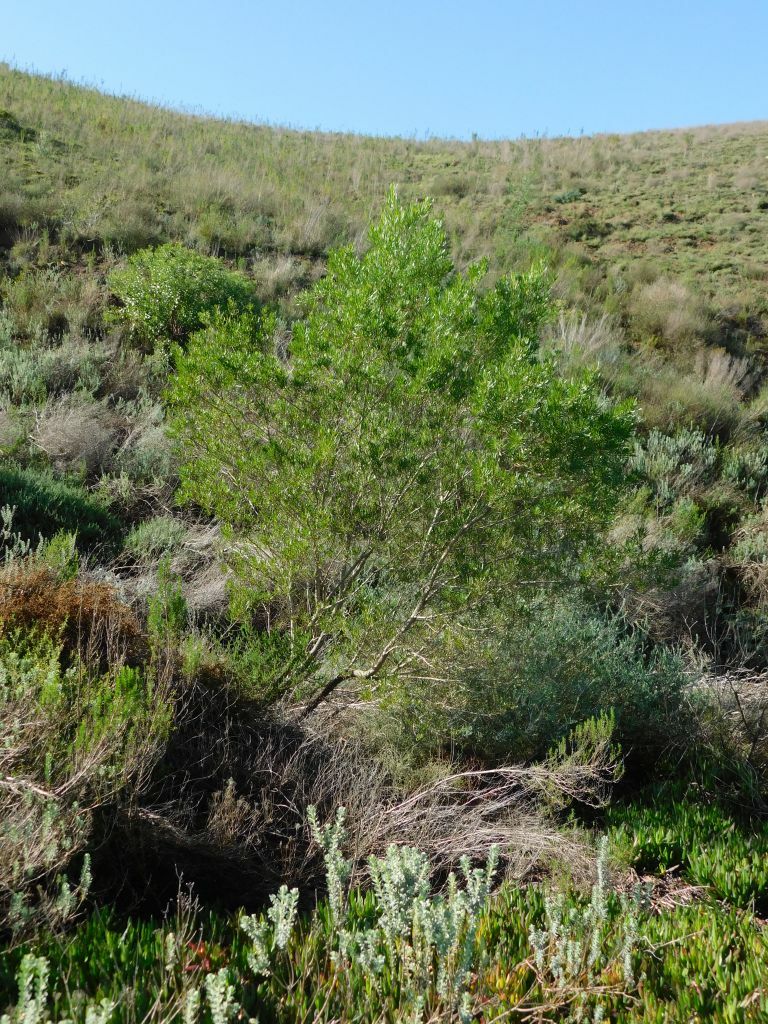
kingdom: Plantae
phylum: Tracheophyta
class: Magnoliopsida
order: Sapindales
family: Sapindaceae
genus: Dodonaea
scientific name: Dodonaea viscosa
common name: Hopbush
